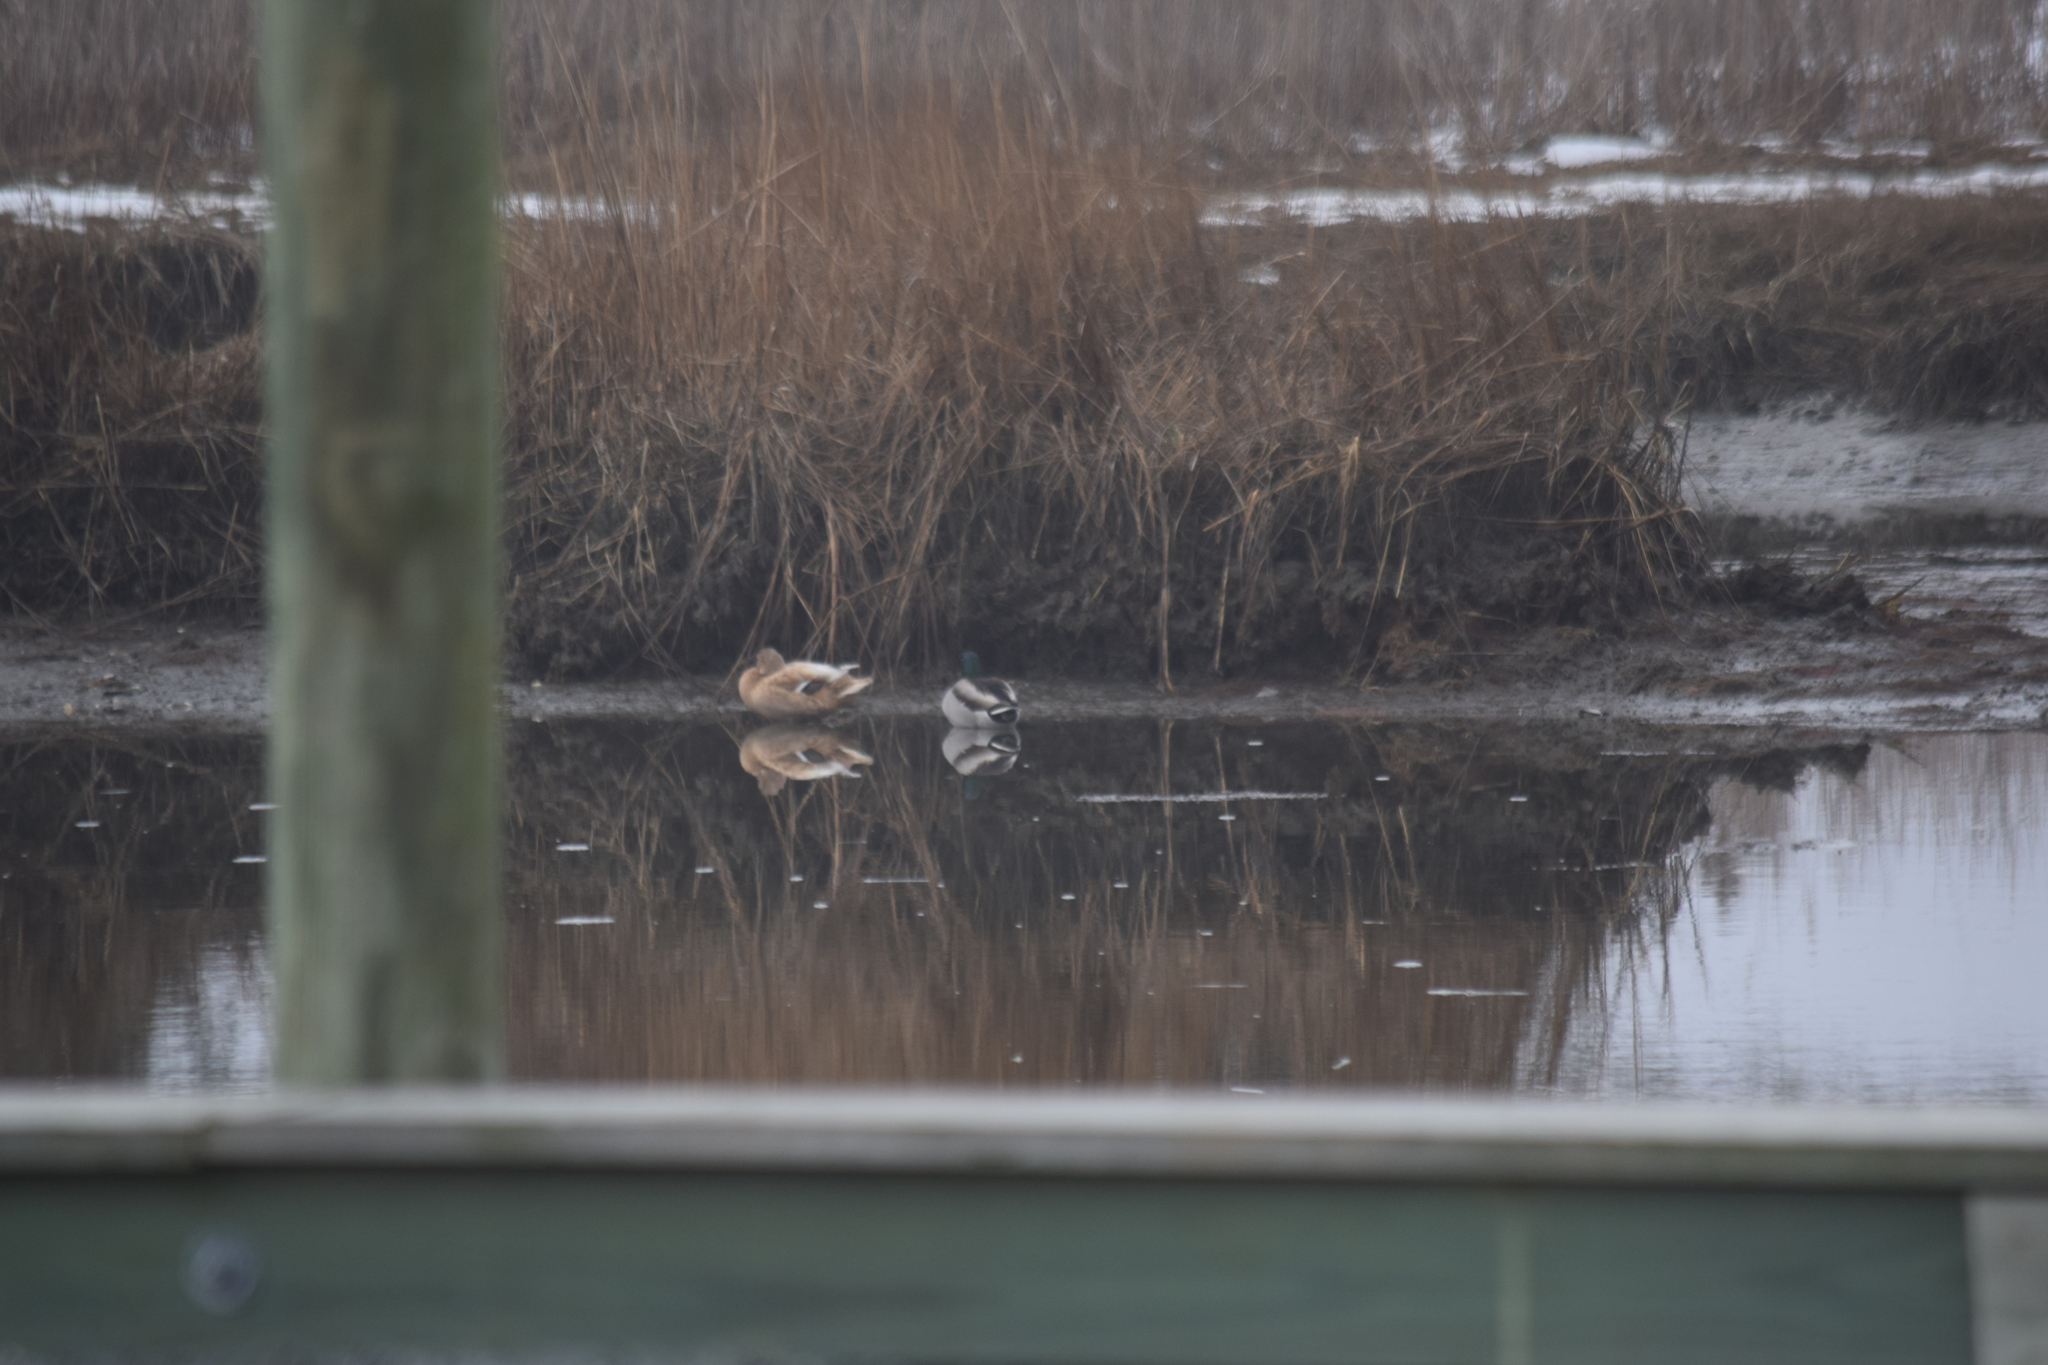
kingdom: Animalia
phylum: Chordata
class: Aves
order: Anseriformes
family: Anatidae
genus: Anas
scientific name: Anas platyrhynchos
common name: Mallard
